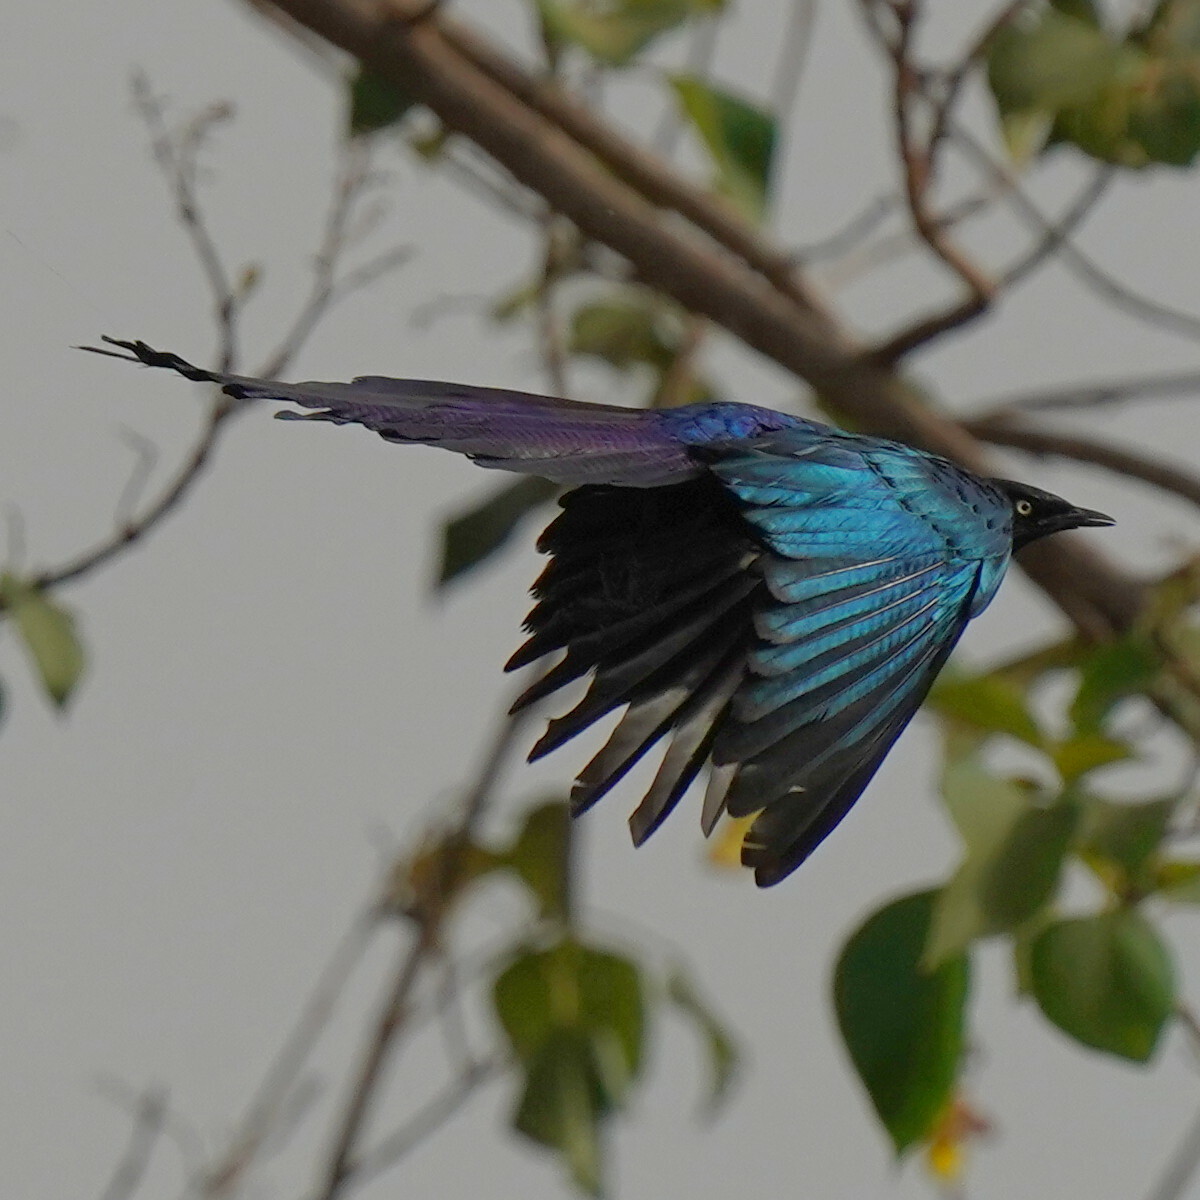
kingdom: Animalia
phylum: Chordata
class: Aves
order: Passeriformes
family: Sturnidae
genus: Lamprotornis
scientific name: Lamprotornis caudatus
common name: Long-tailed glossy starling
